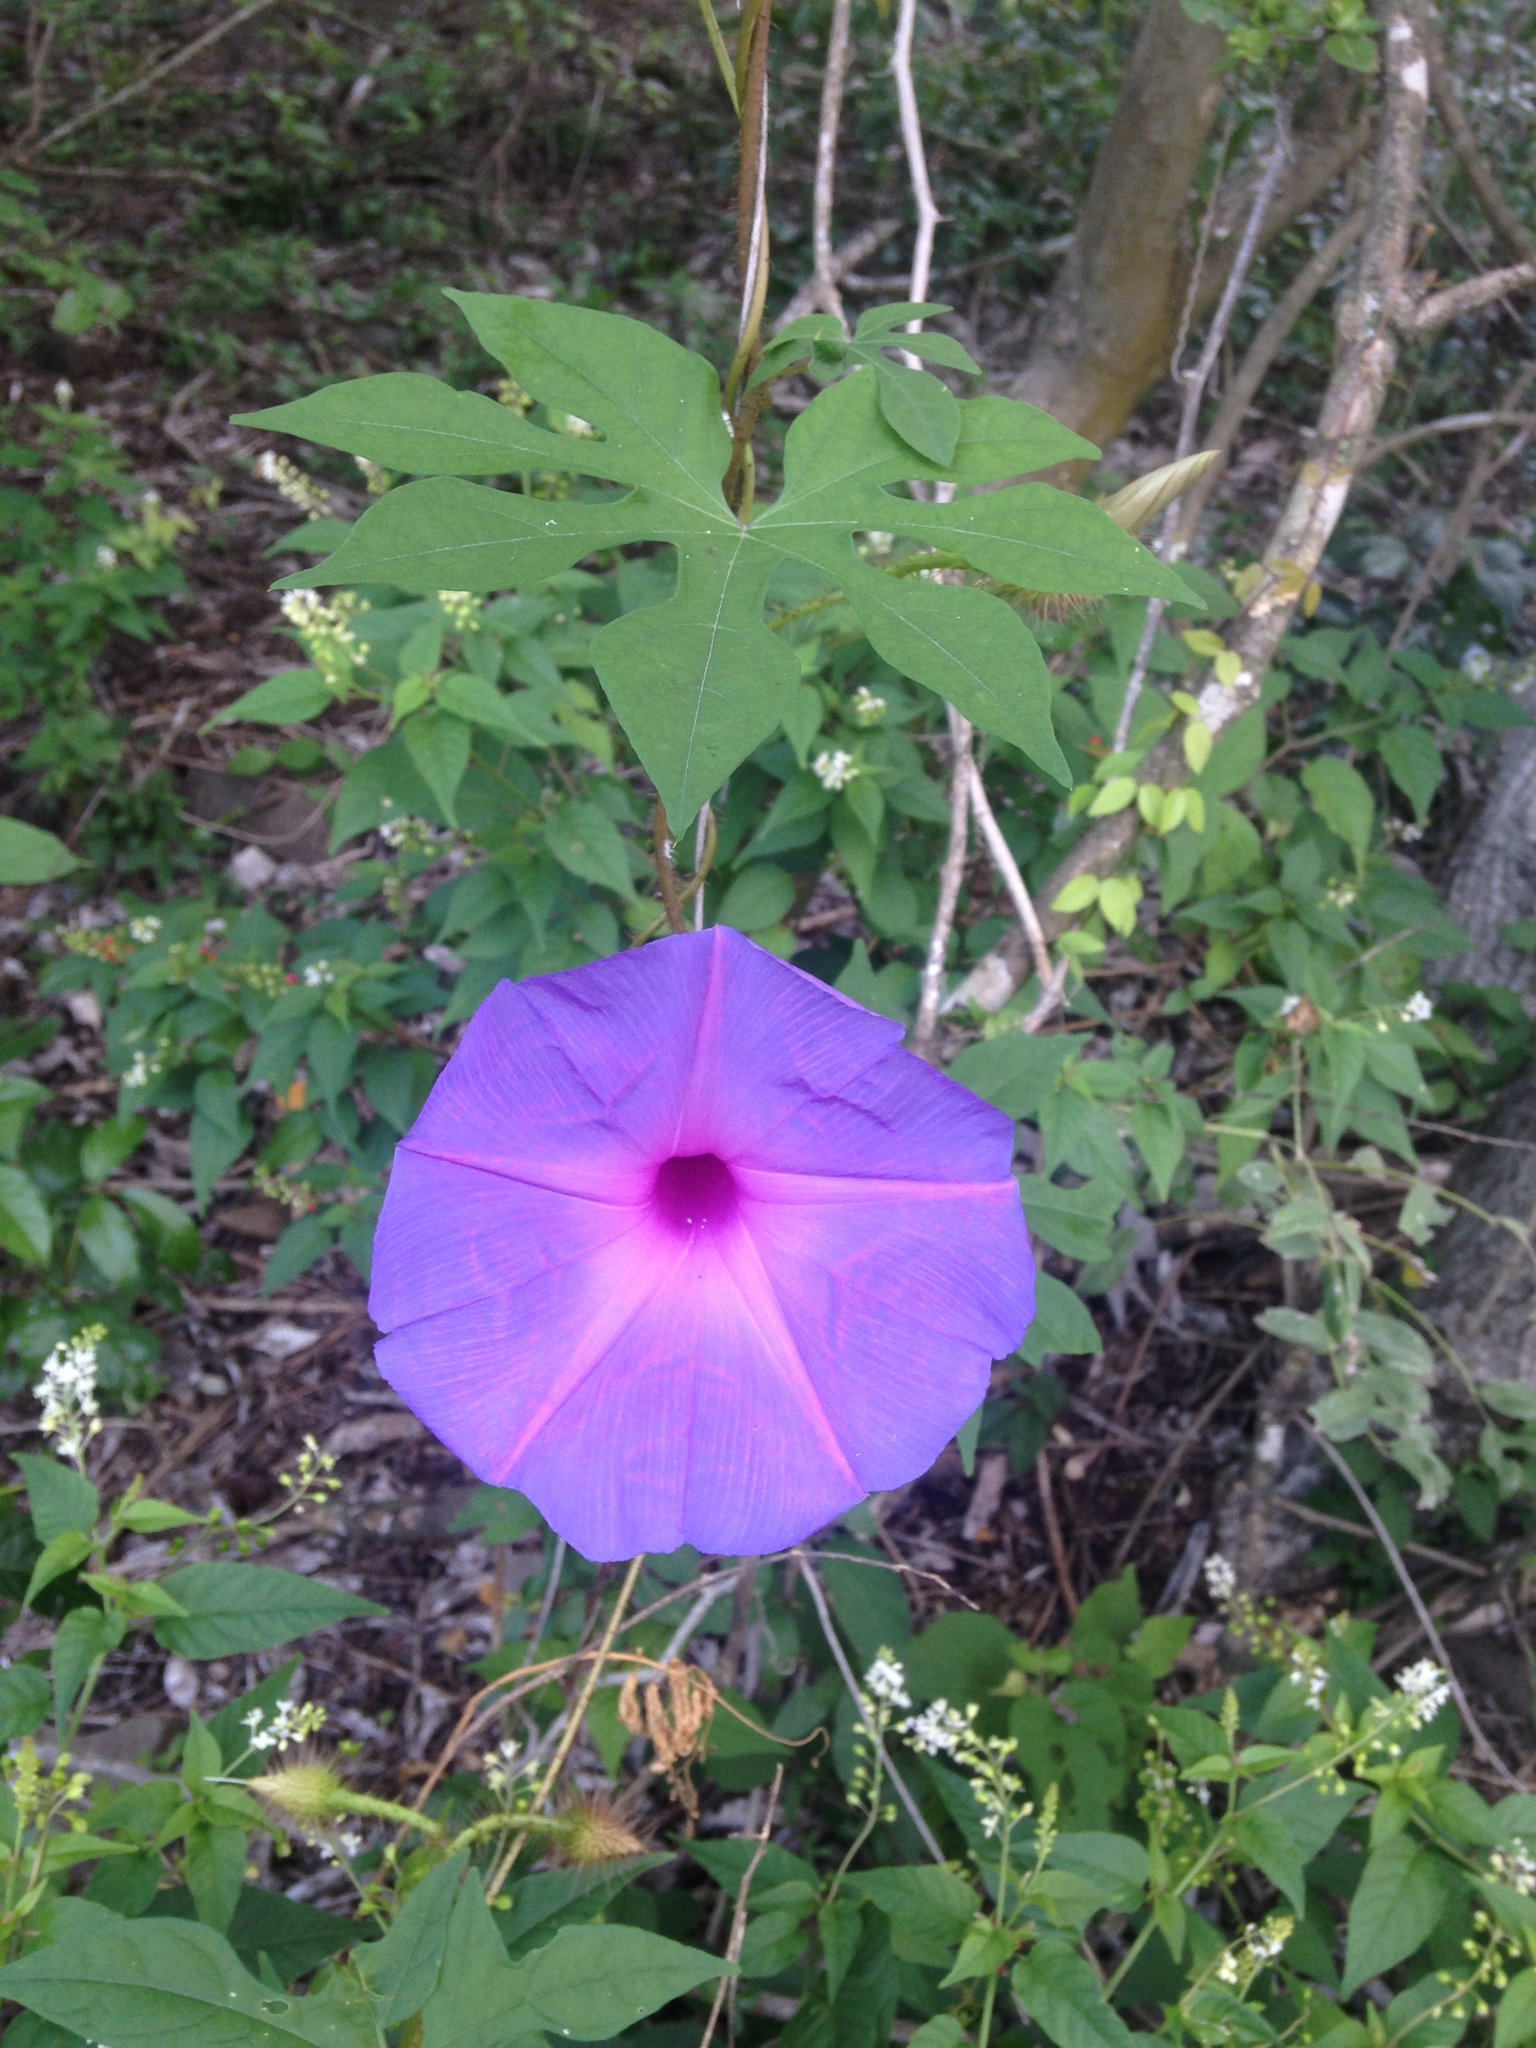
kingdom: Plantae
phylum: Tracheophyta
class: Magnoliopsida
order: Solanales
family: Convolvulaceae
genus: Ipomoea
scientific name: Ipomoea setosa
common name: Brazilian morning-glory
